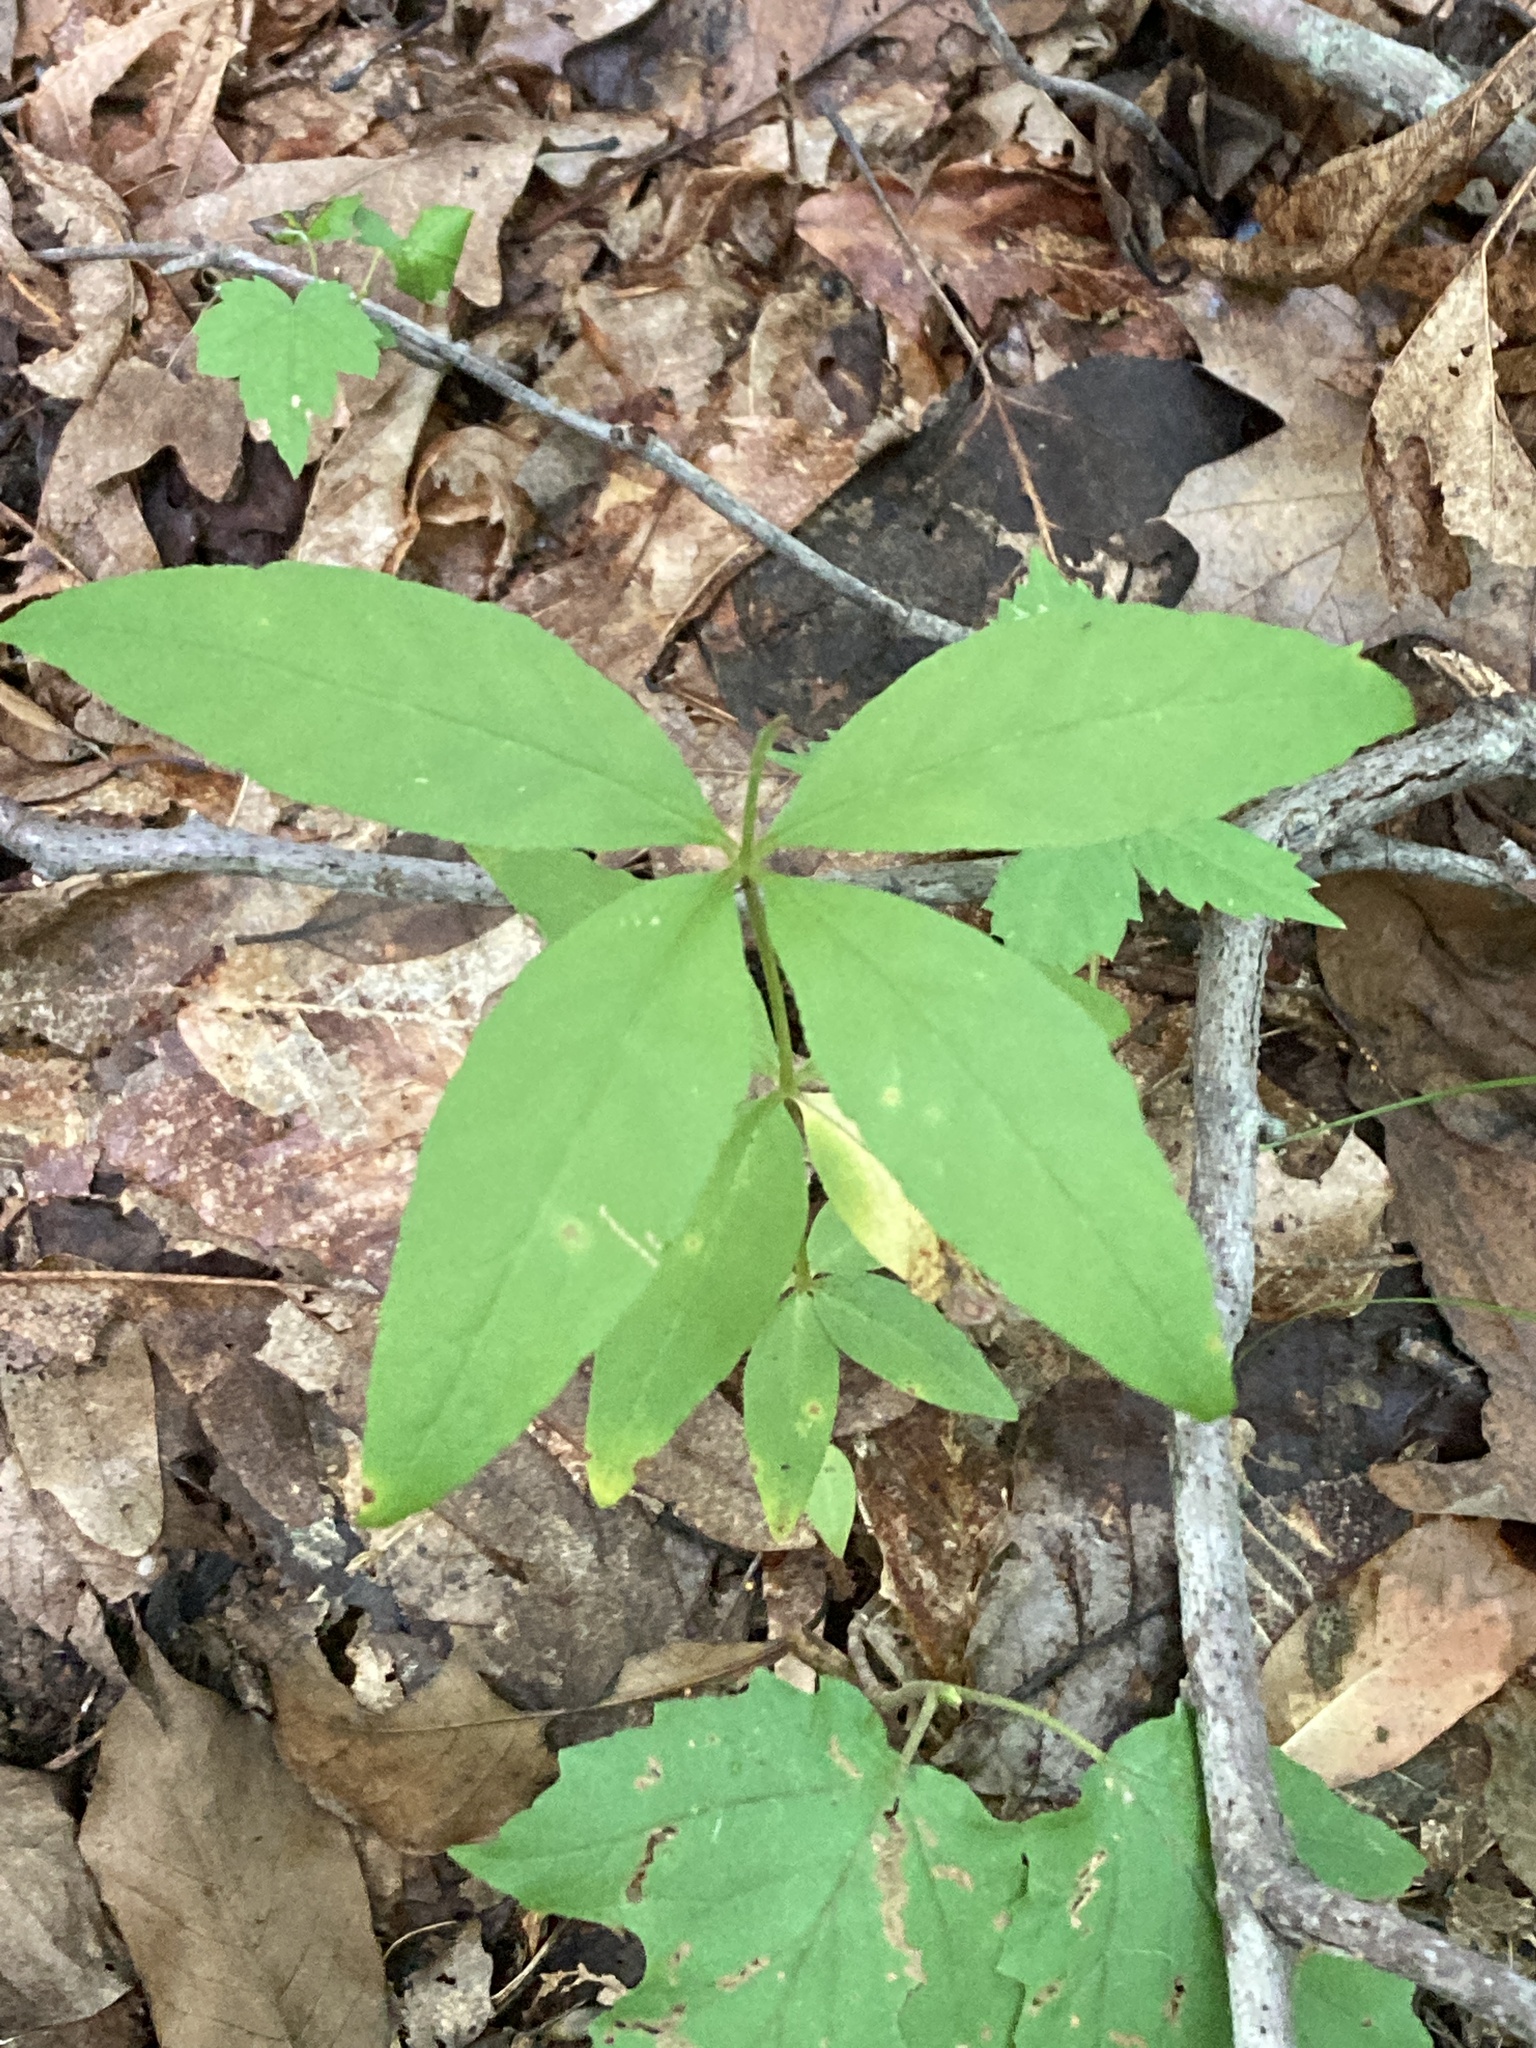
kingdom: Plantae
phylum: Tracheophyta
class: Magnoliopsida
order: Ericales
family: Primulaceae
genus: Lysimachia
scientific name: Lysimachia quadrifolia
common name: Whorled loosestrife
